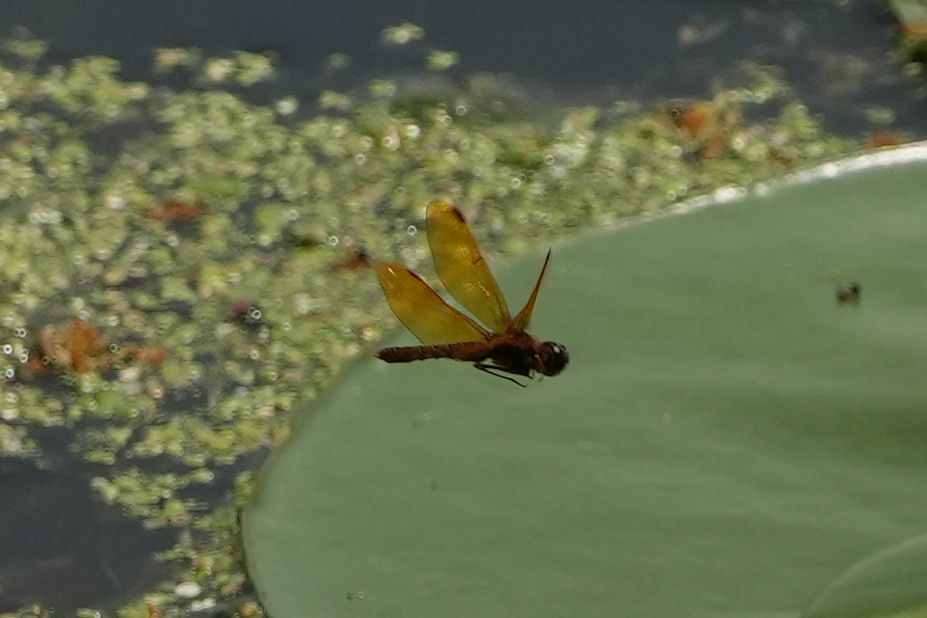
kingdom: Animalia
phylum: Arthropoda
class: Insecta
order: Odonata
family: Libellulidae
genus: Perithemis
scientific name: Perithemis tenera
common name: Eastern amberwing
